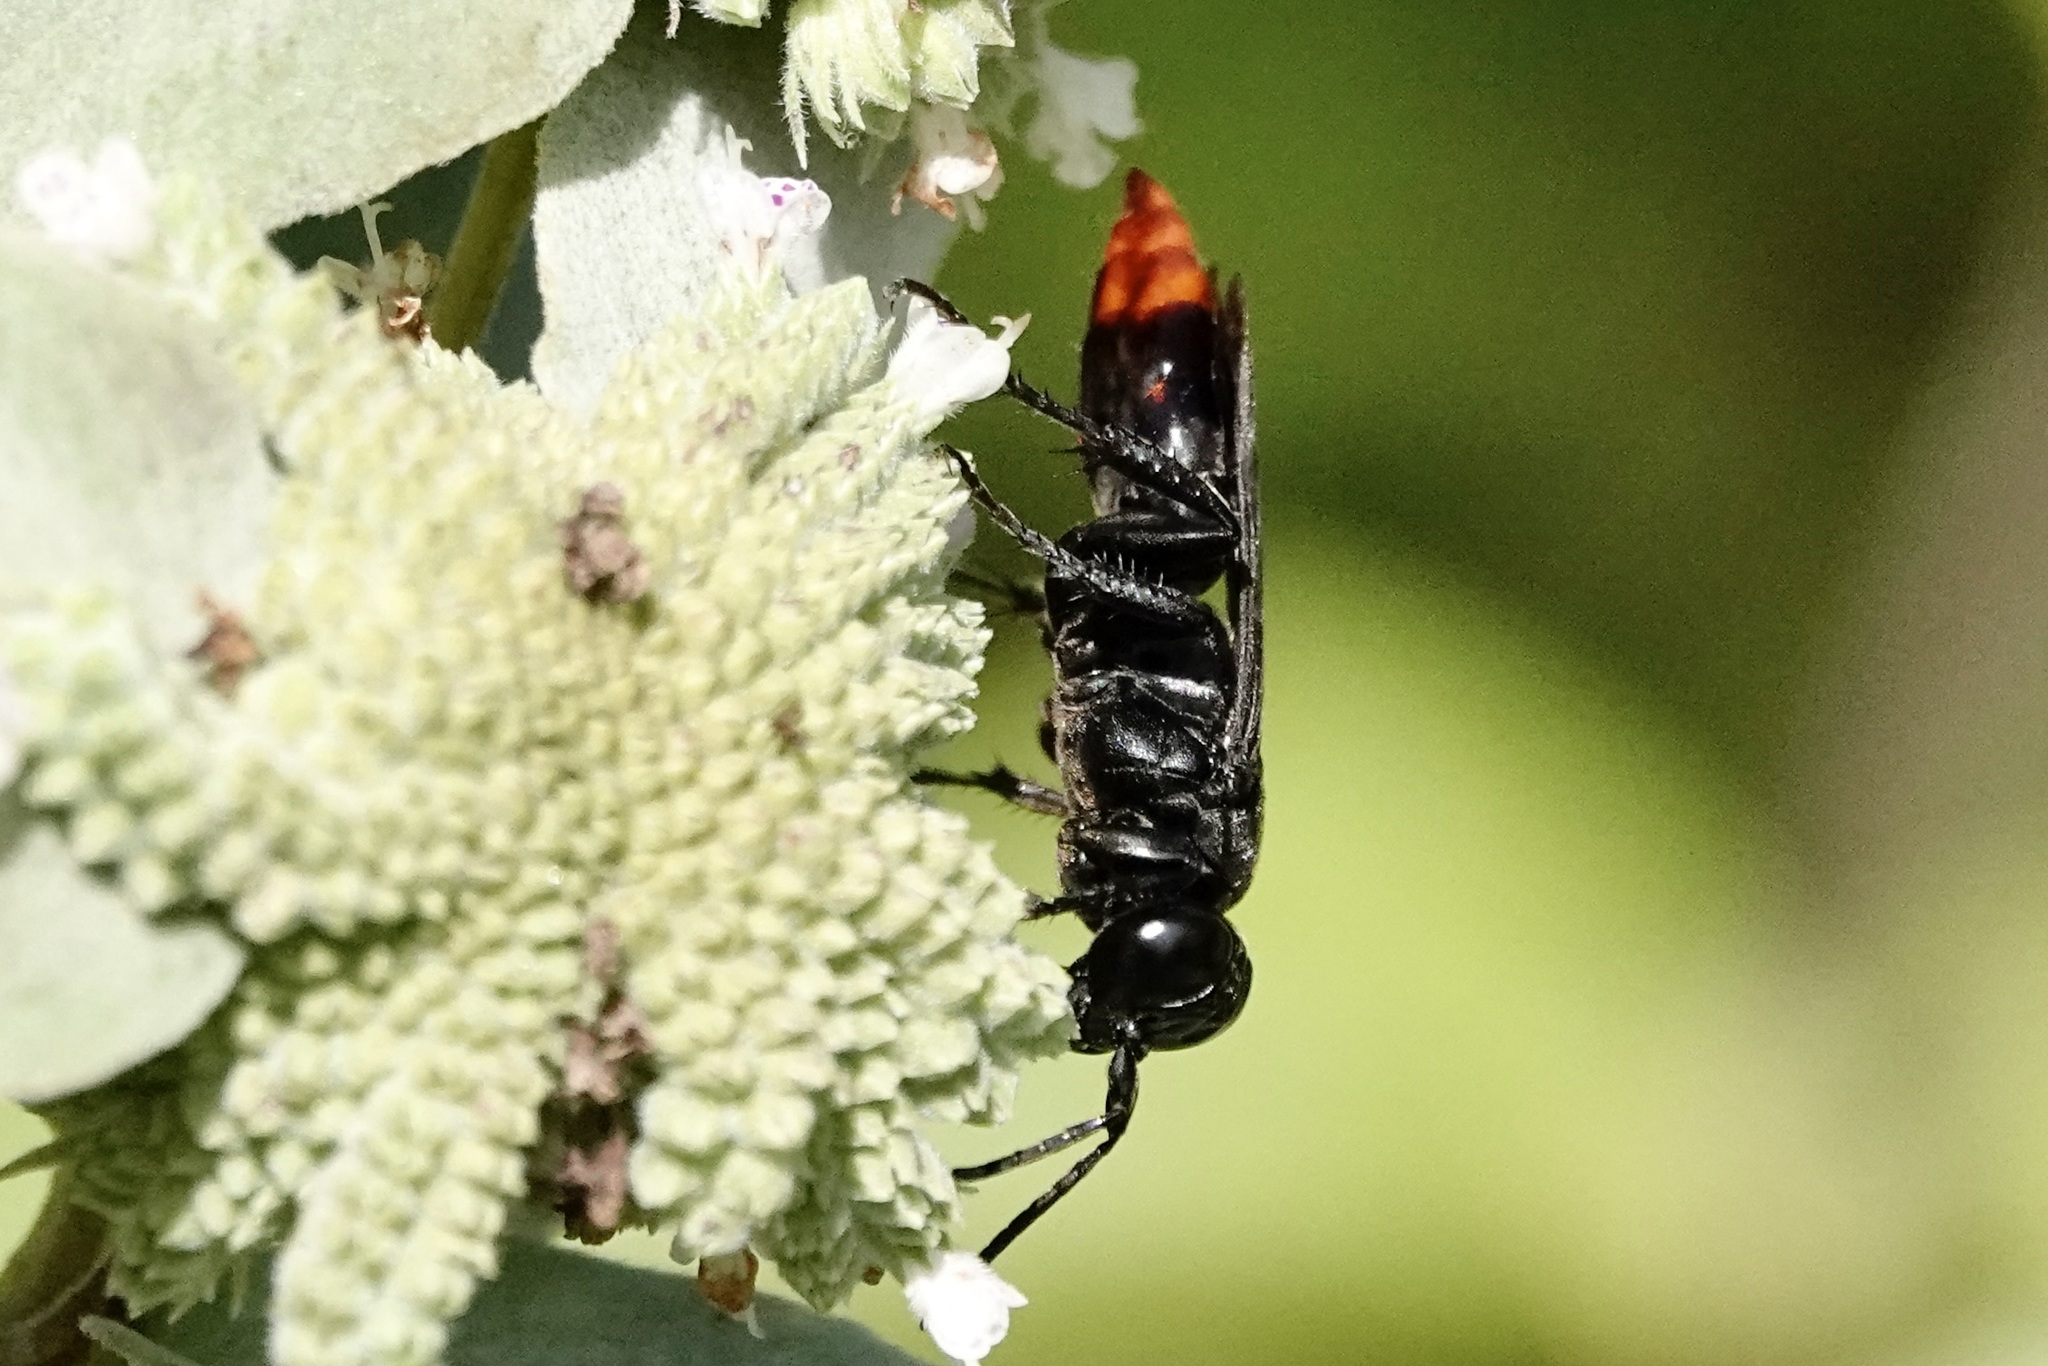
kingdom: Animalia
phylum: Arthropoda
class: Insecta
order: Hymenoptera
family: Crabronidae
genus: Larra
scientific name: Larra analis
